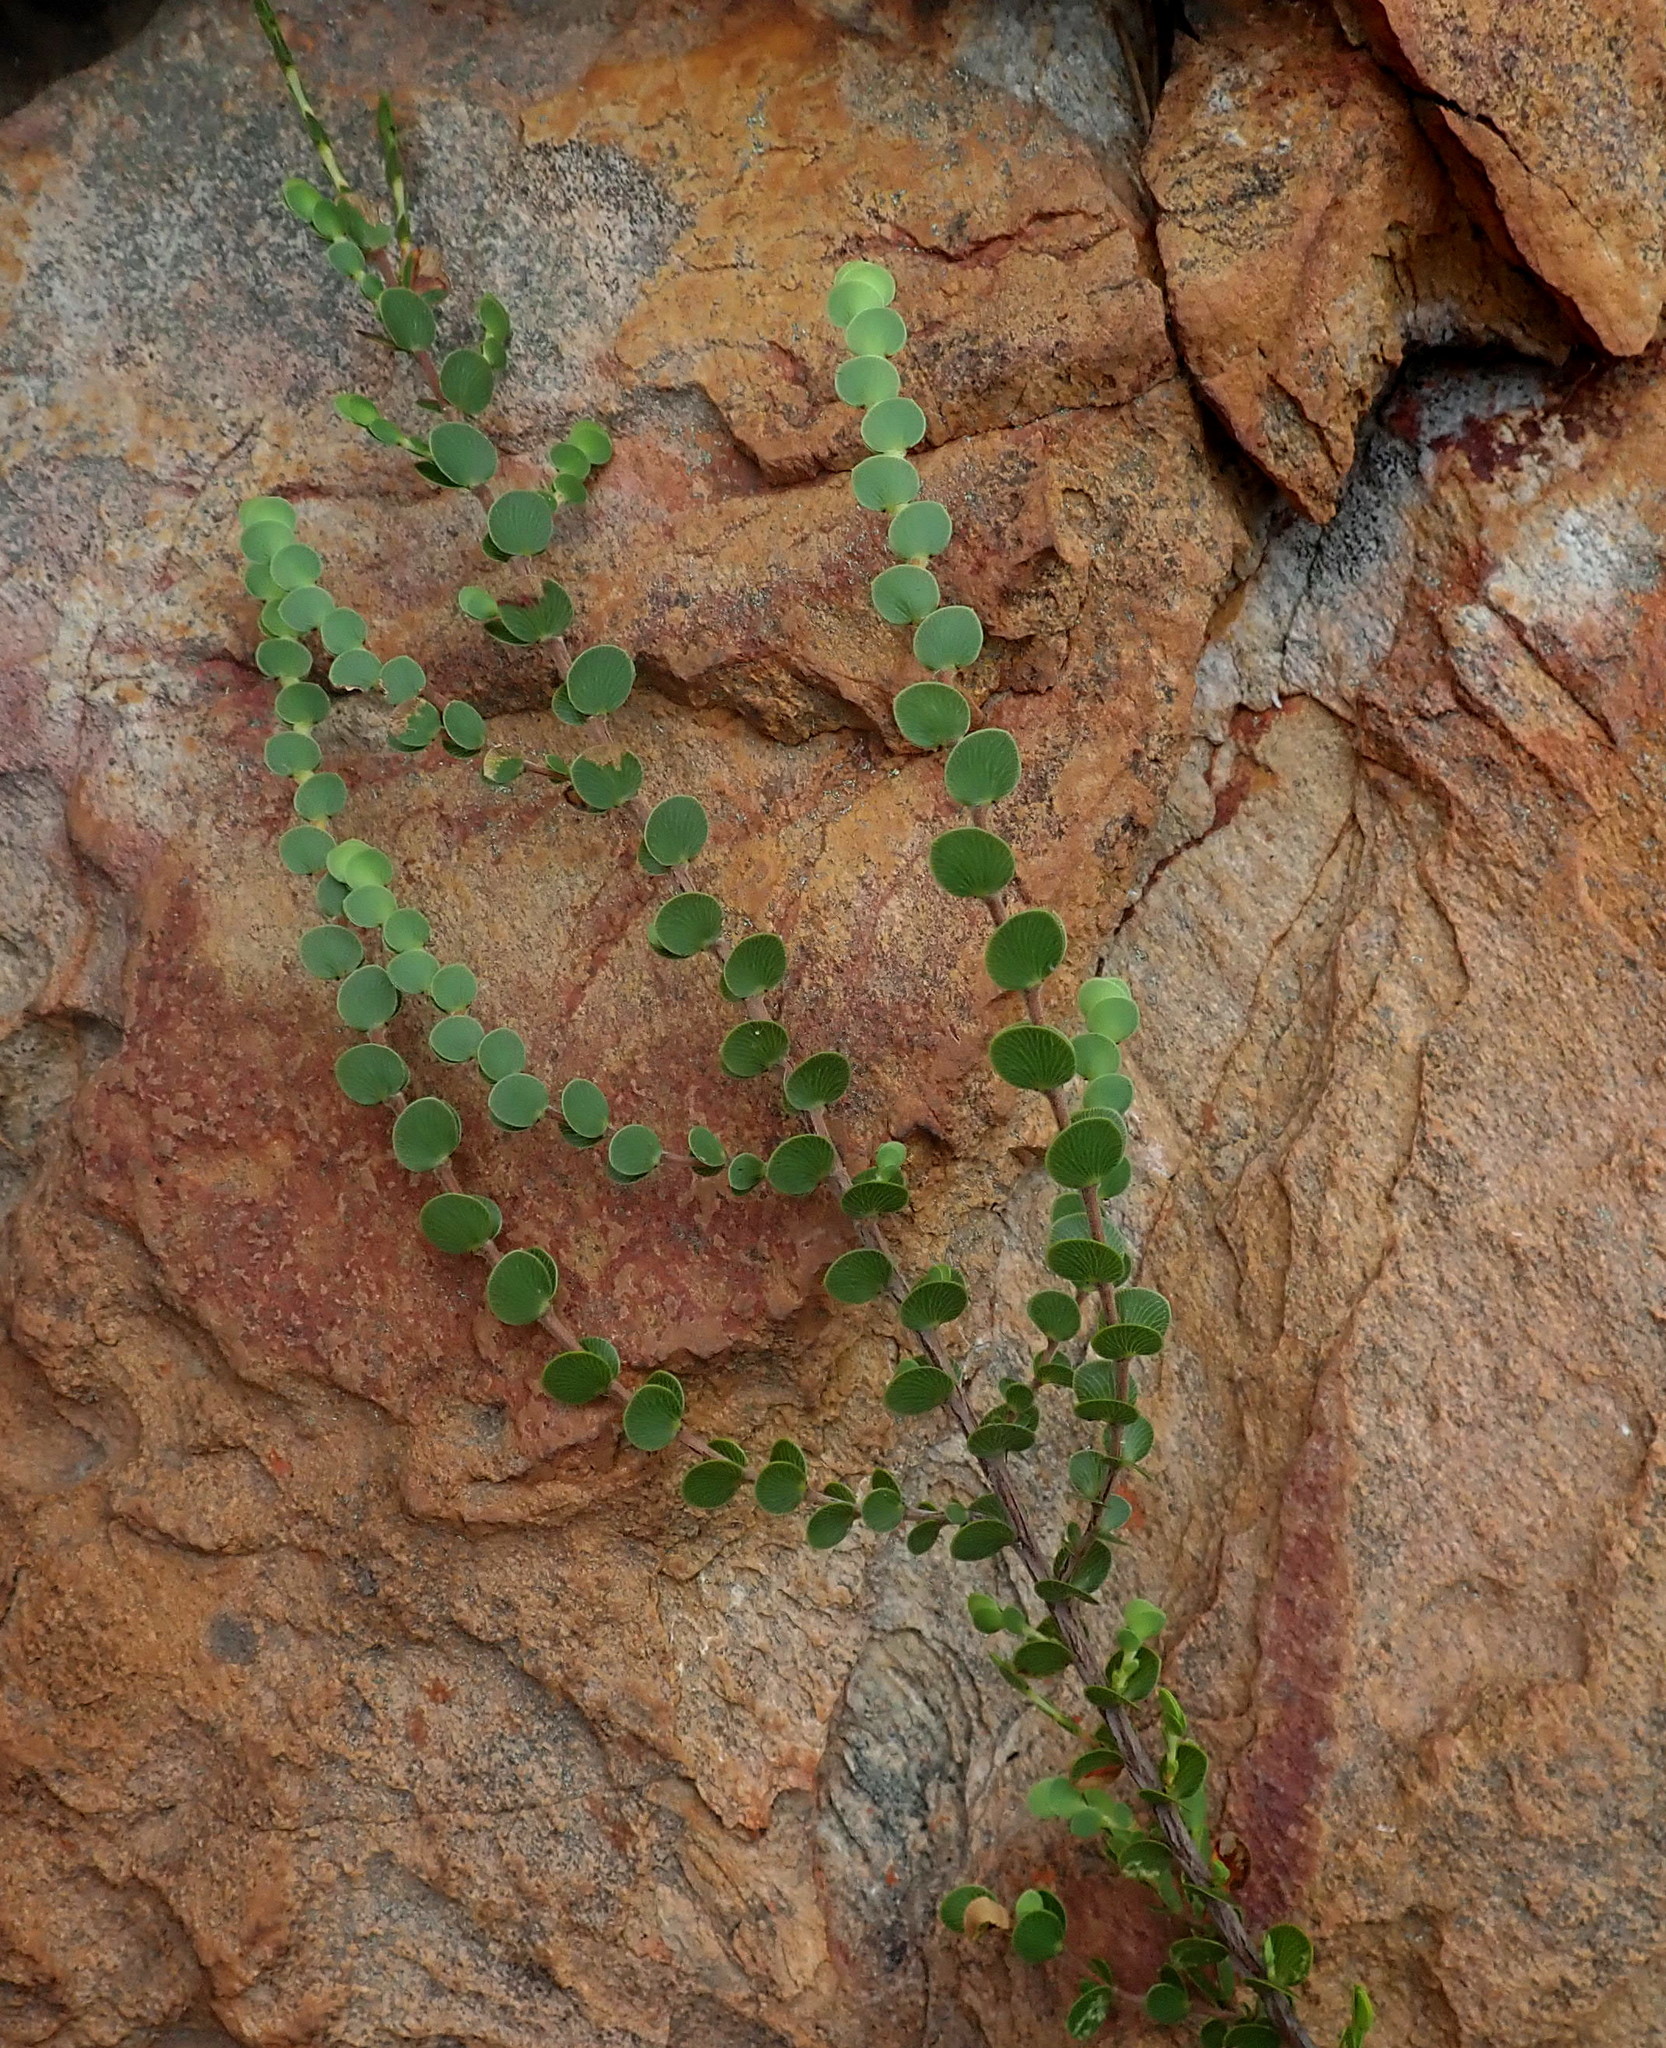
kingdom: Plantae
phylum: Tracheophyta
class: Magnoliopsida
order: Rosales
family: Rosaceae
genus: Cliffortia
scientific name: Cliffortia pulchella
